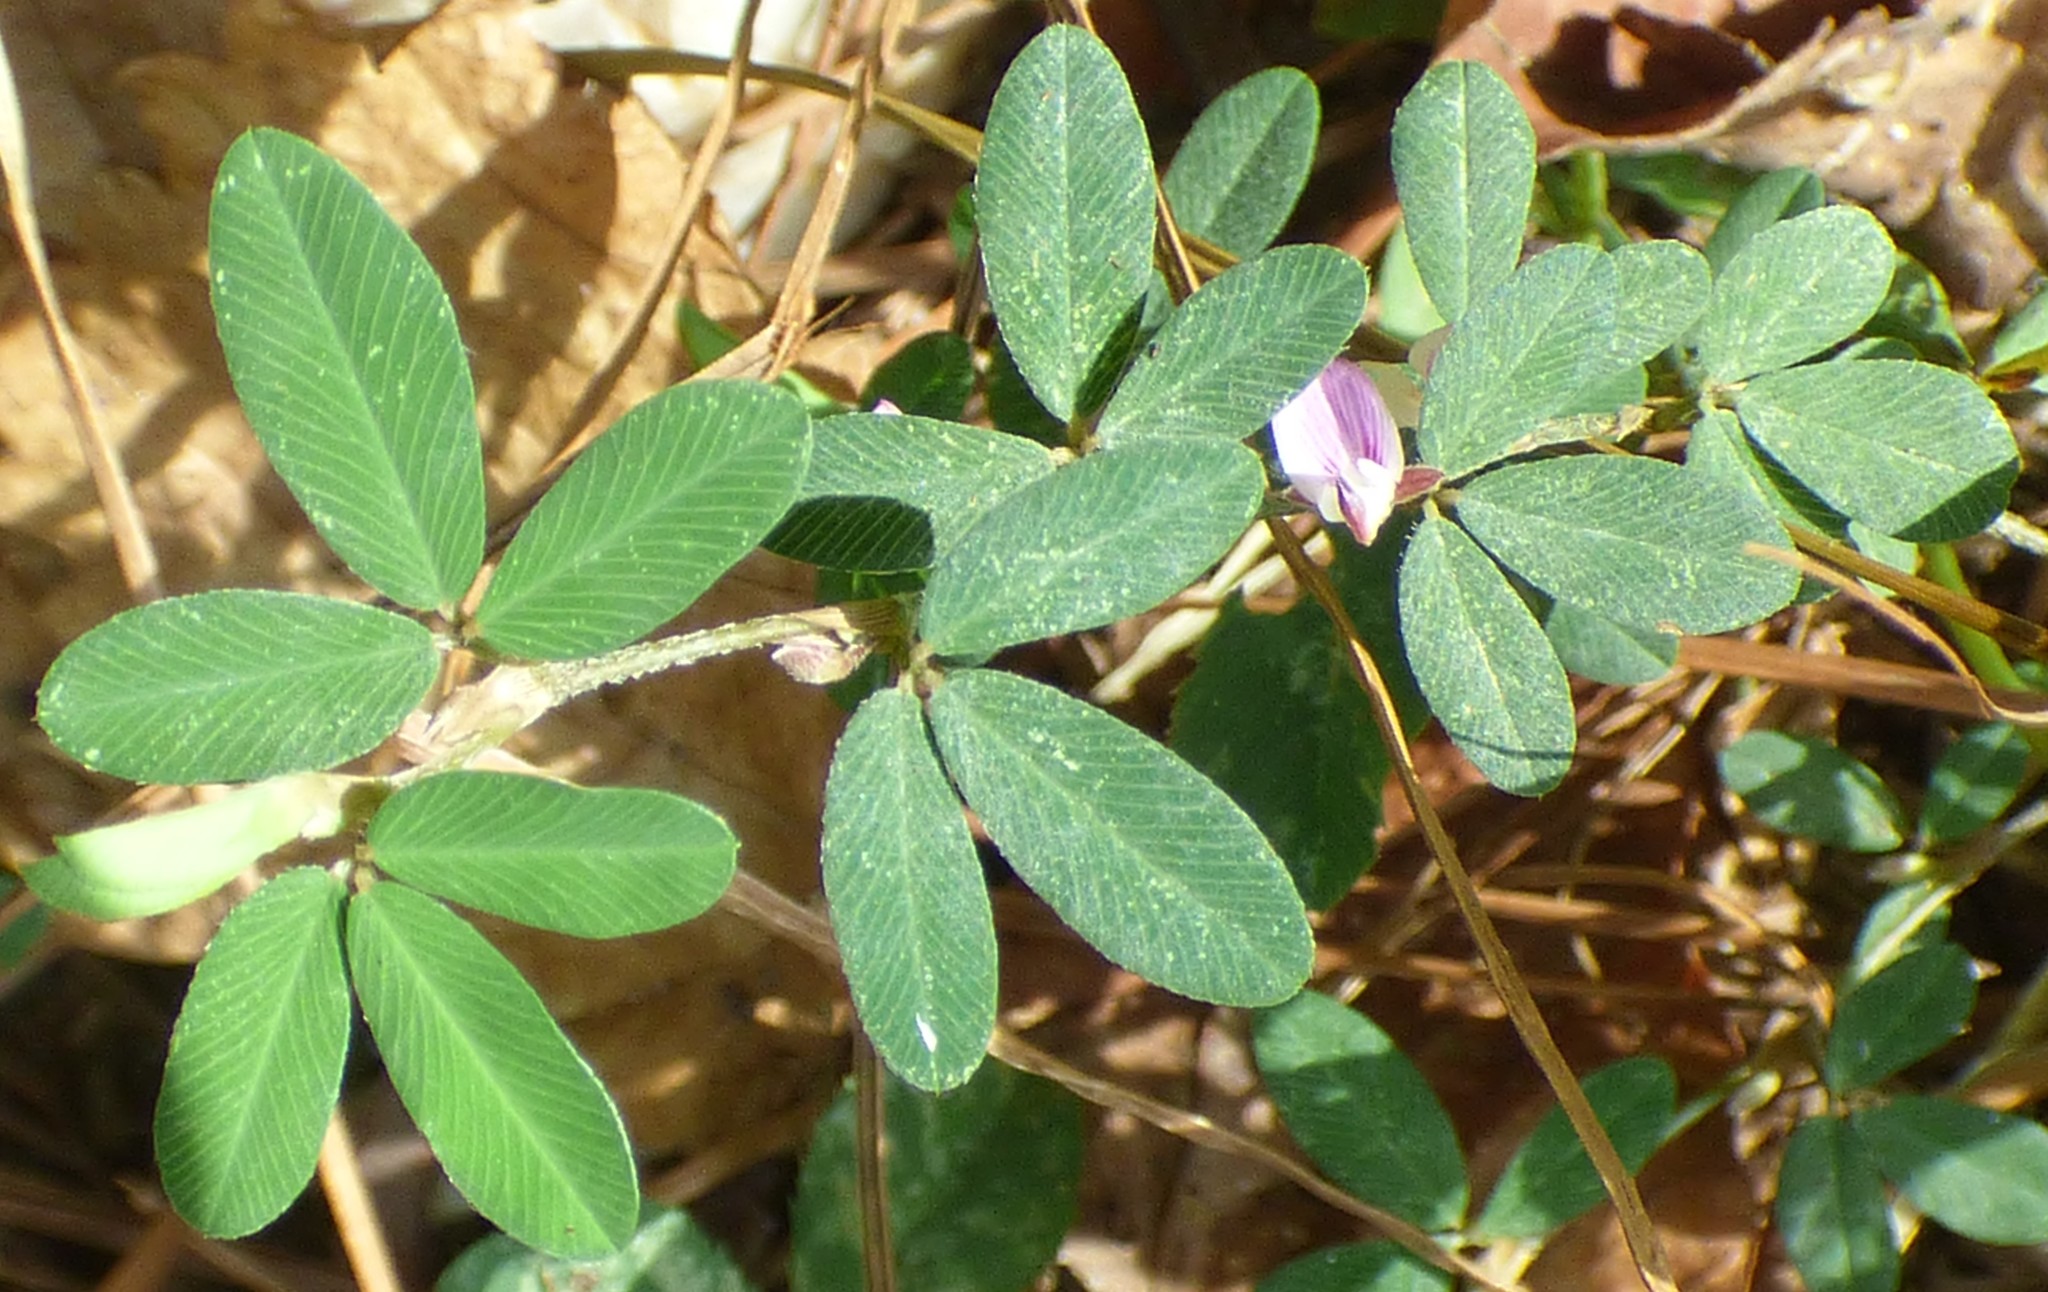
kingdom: Plantae
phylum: Tracheophyta
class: Magnoliopsida
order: Fabales
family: Fabaceae
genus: Kummerowia
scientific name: Kummerowia striata
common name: Japanese clover
